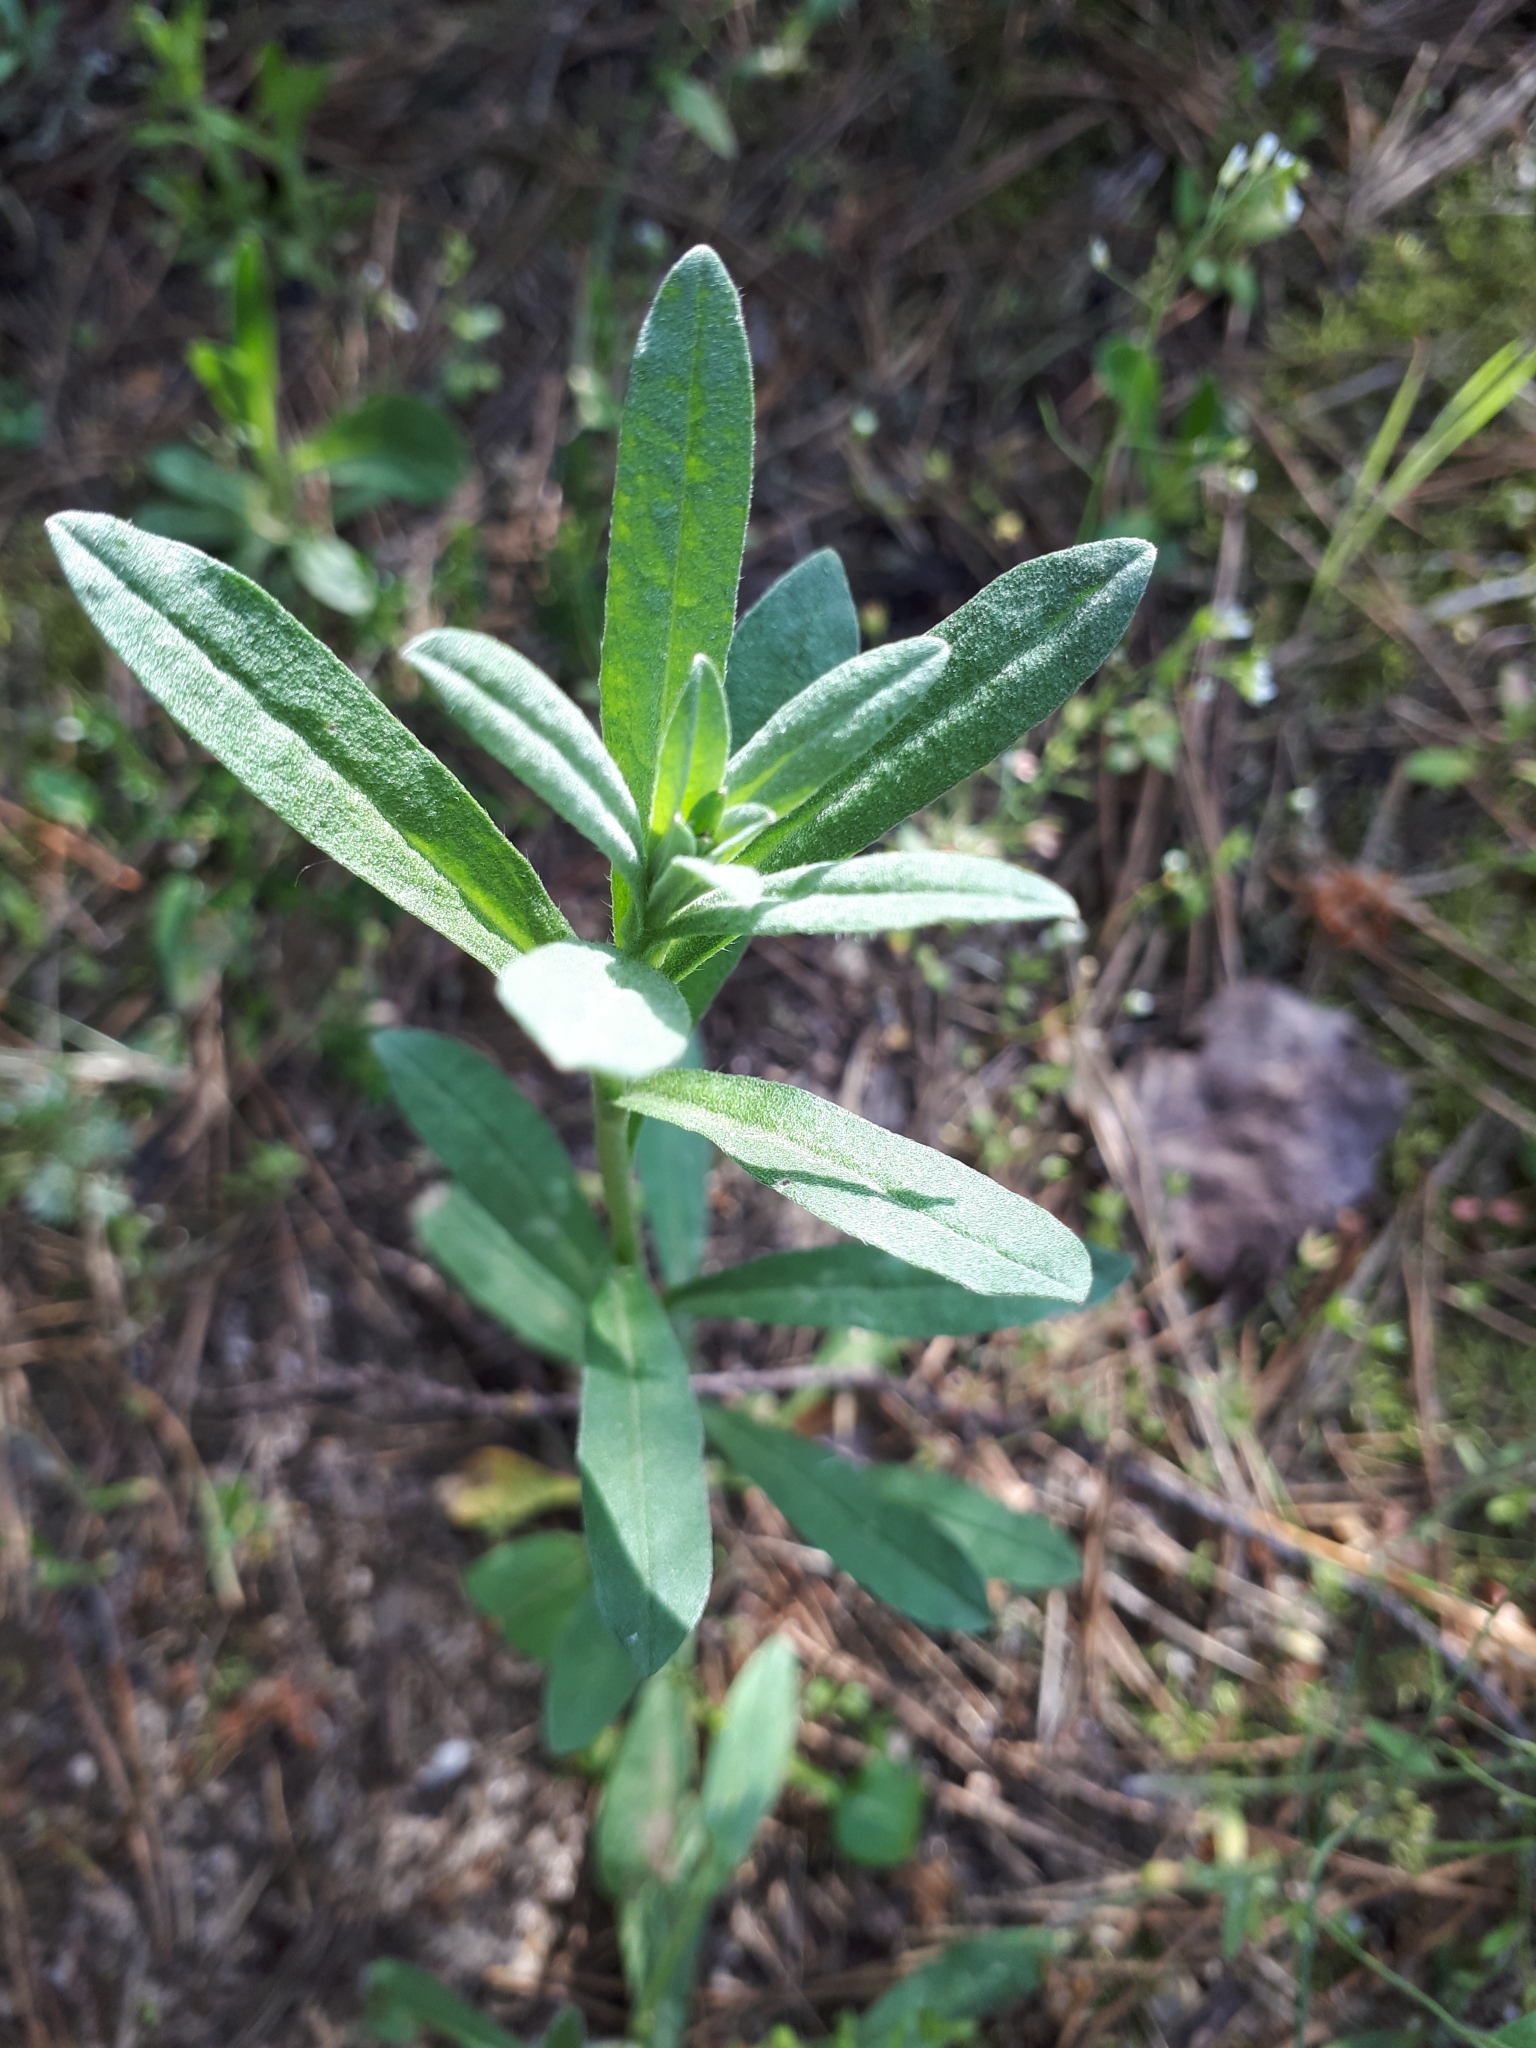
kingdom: Plantae
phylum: Tracheophyta
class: Magnoliopsida
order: Brassicales
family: Brassicaceae
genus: Berteroa
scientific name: Berteroa incana
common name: Hoary alison
